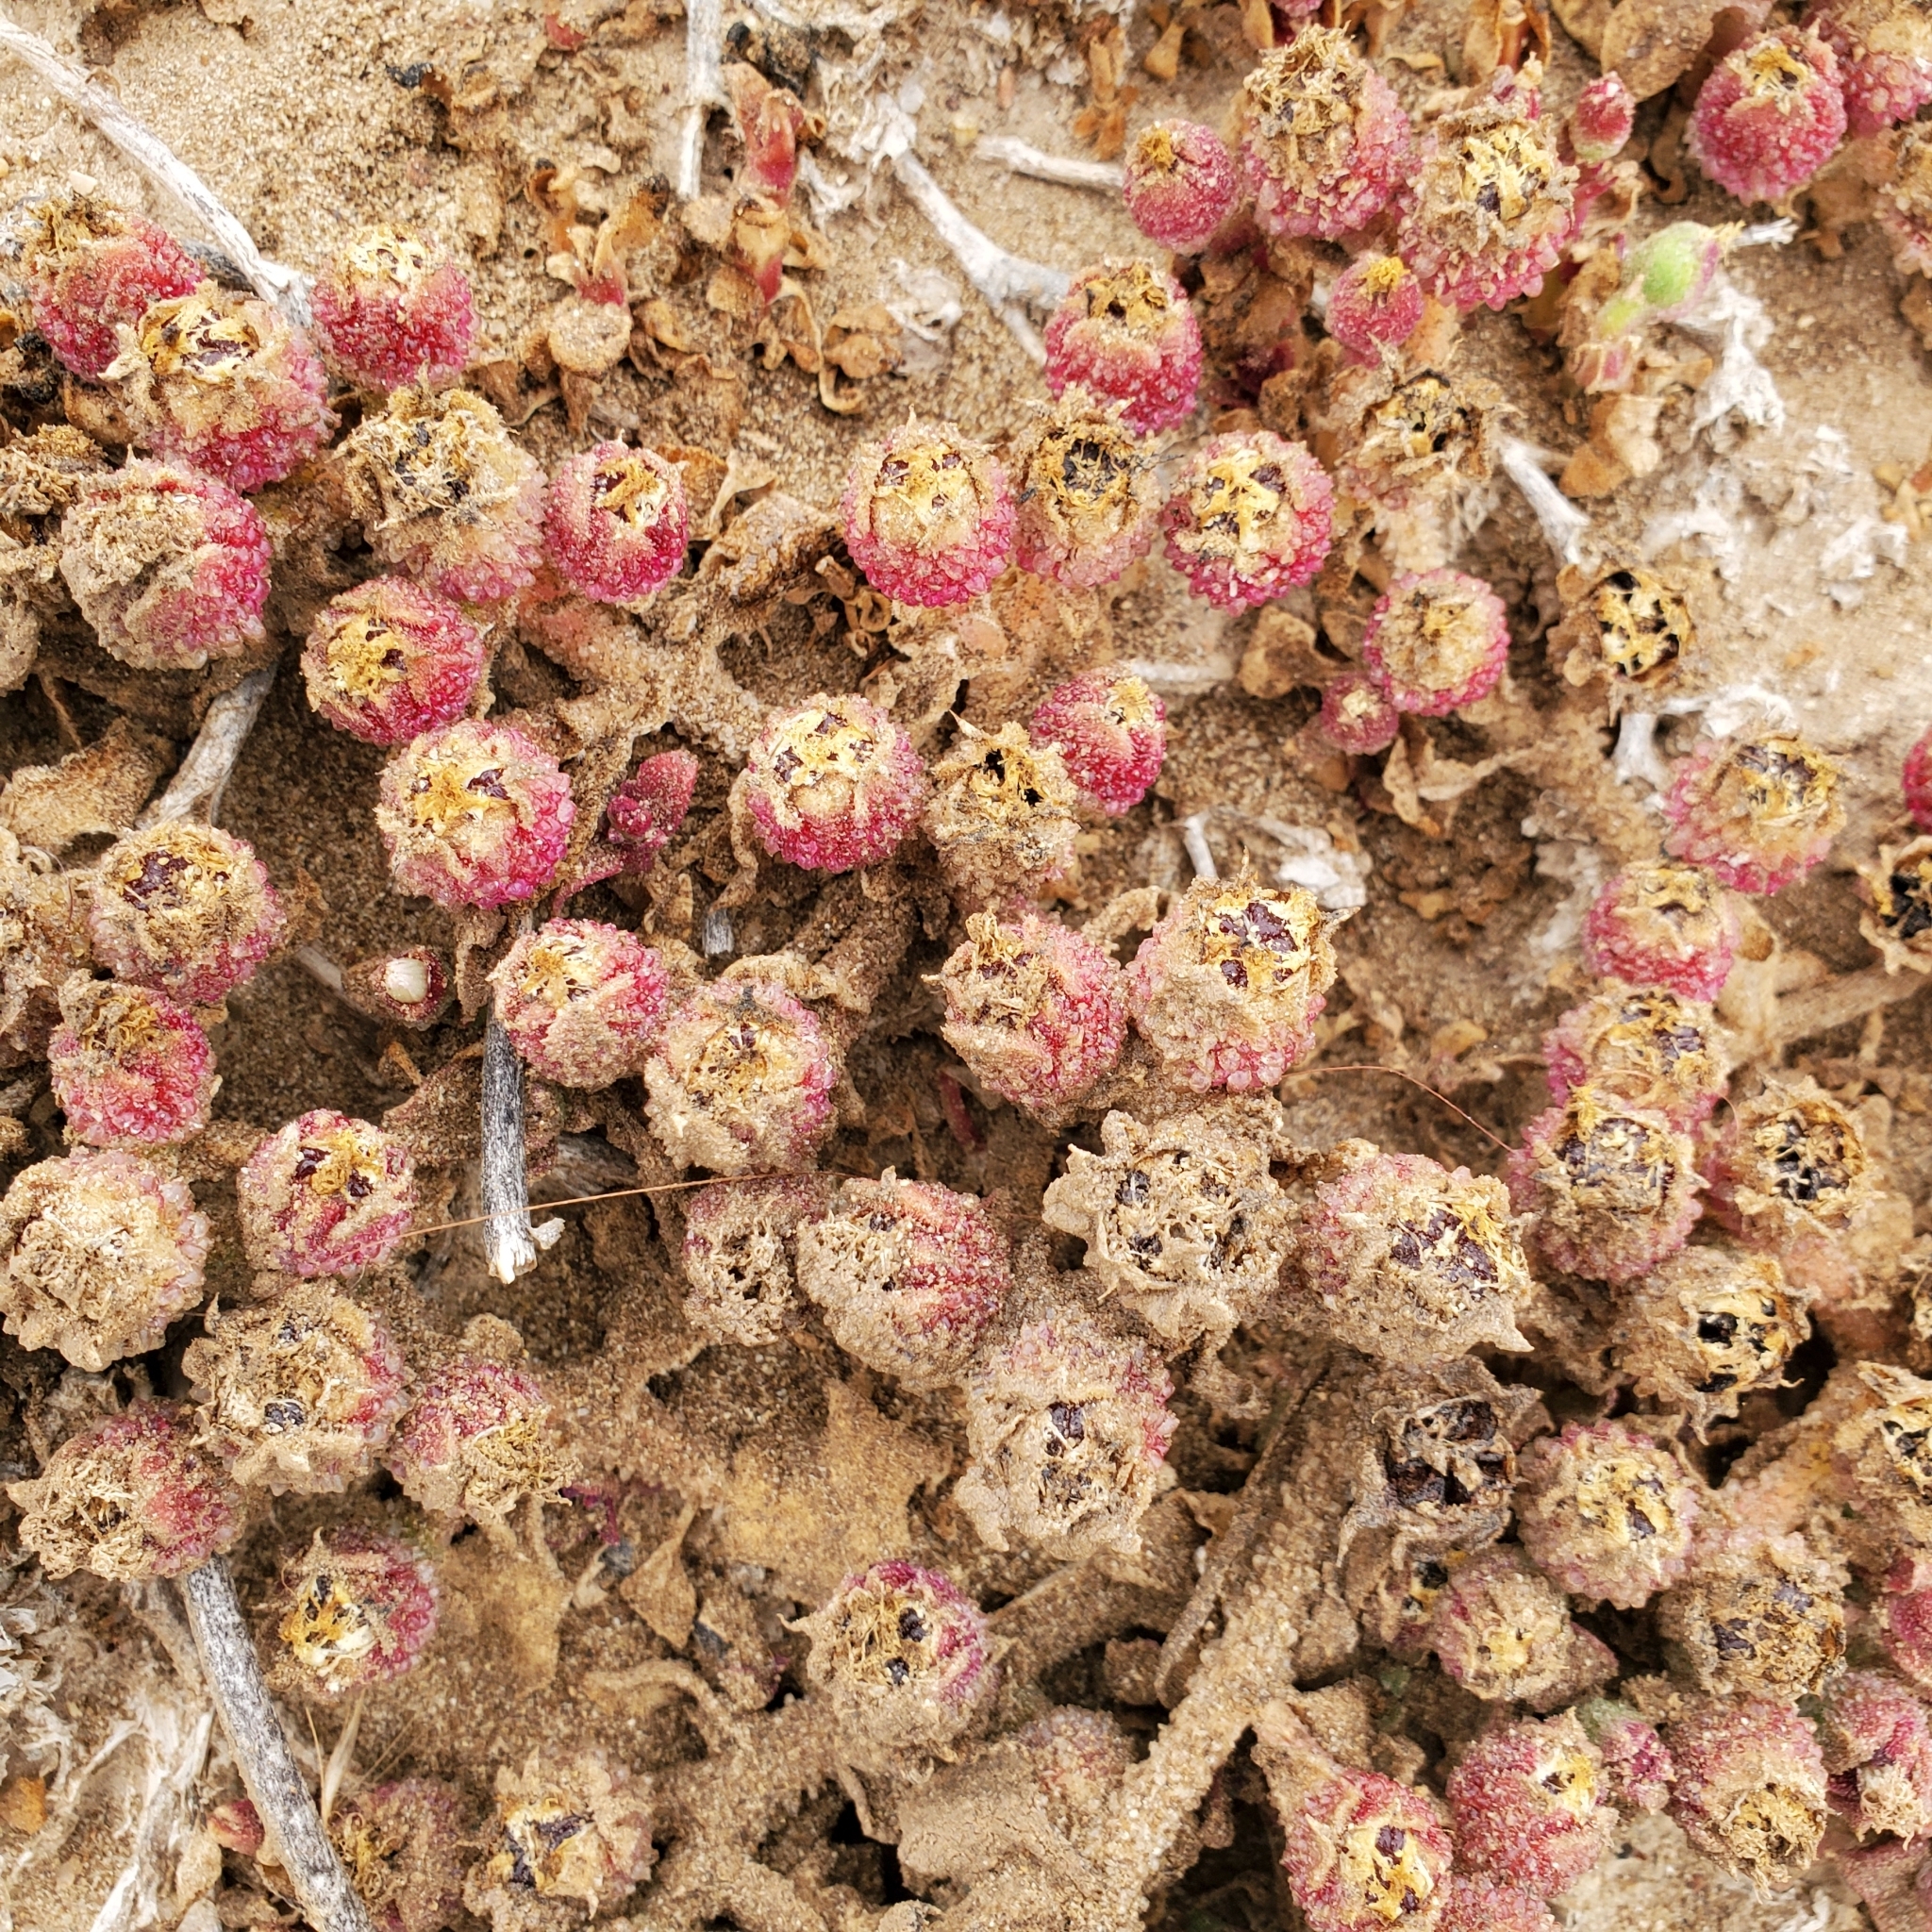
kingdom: Plantae
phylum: Tracheophyta
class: Magnoliopsida
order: Caryophyllales
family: Aizoaceae
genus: Mesembryanthemum
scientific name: Mesembryanthemum crystallinum
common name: Common iceplant
